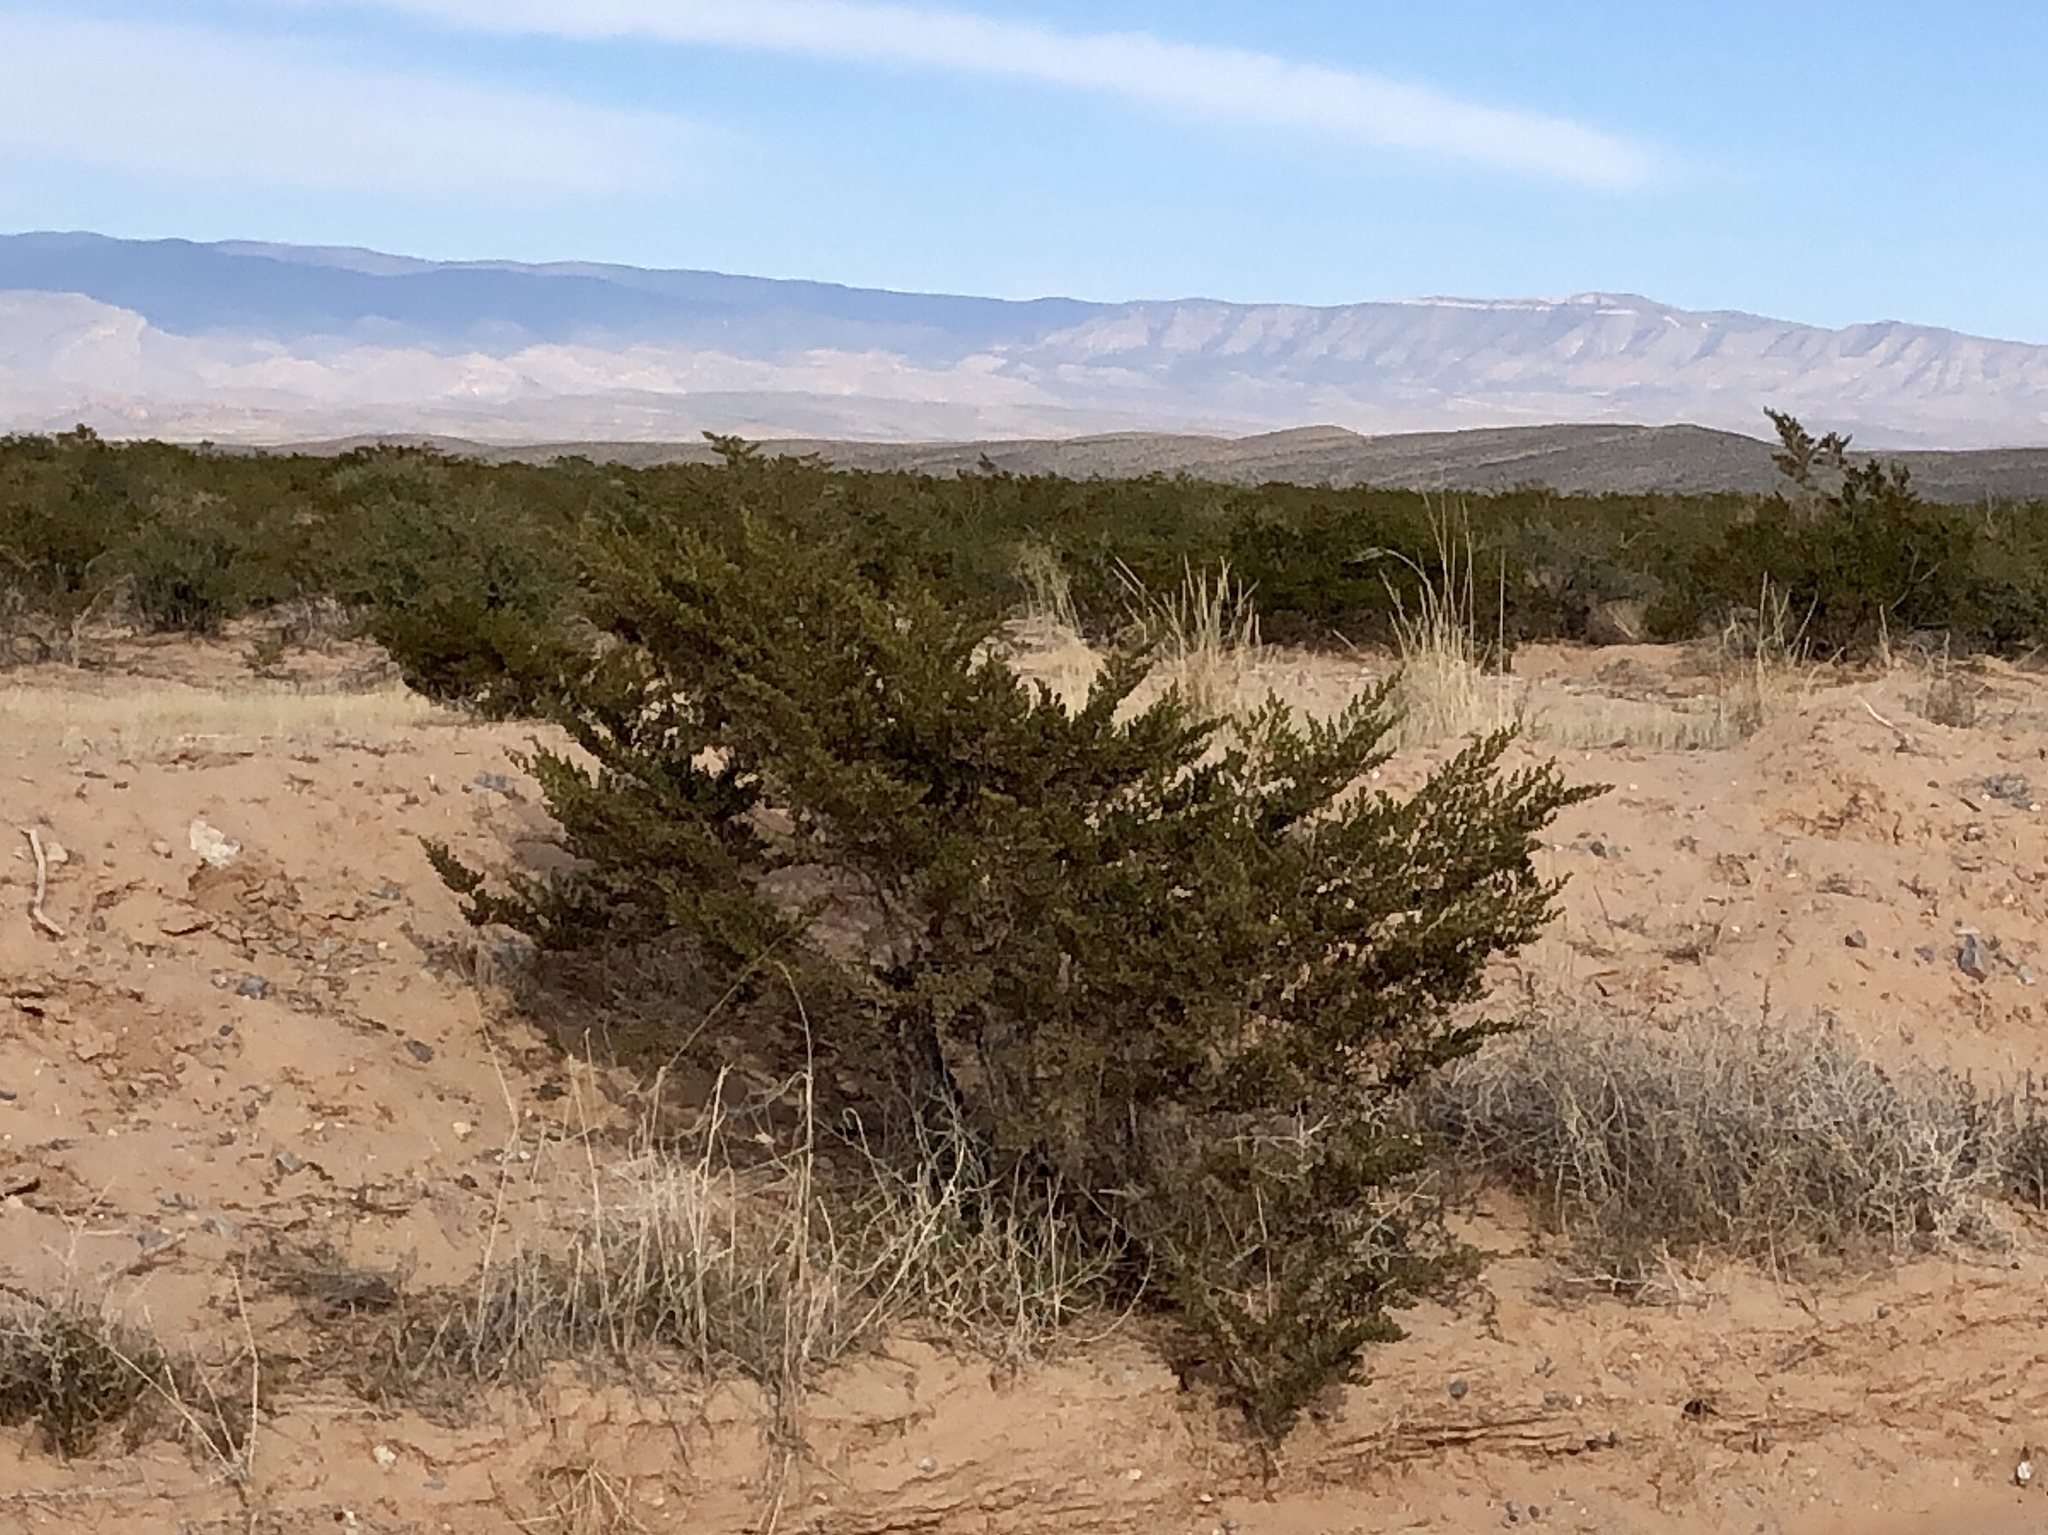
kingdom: Plantae
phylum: Tracheophyta
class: Magnoliopsida
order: Zygophyllales
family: Zygophyllaceae
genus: Larrea
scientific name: Larrea tridentata
